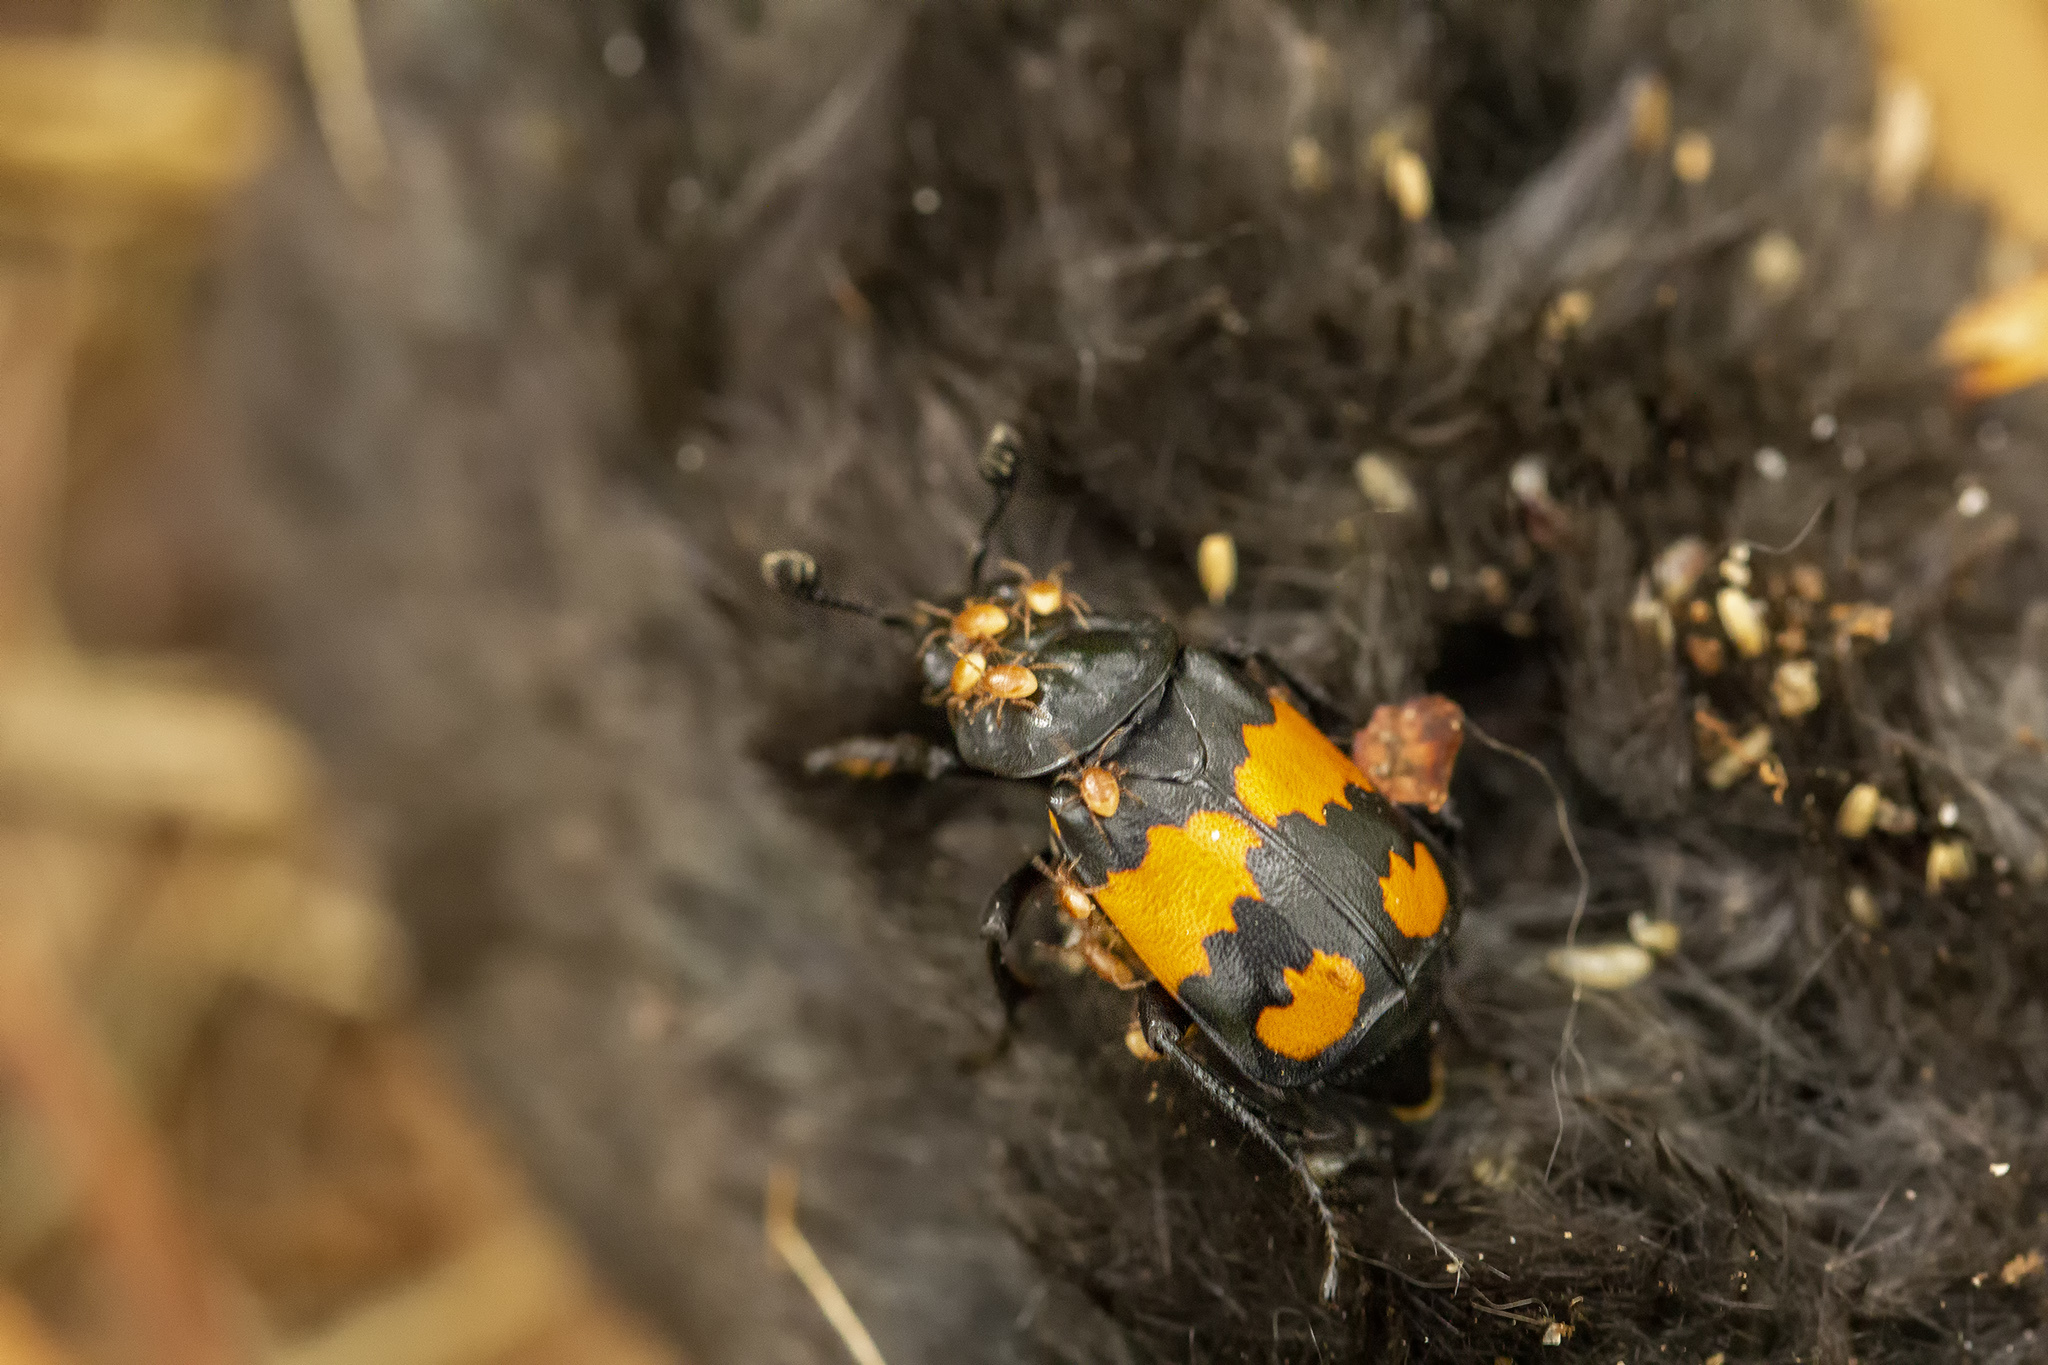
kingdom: Animalia
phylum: Arthropoda
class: Insecta
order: Coleoptera
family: Staphylinidae
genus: Nicrophorus
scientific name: Nicrophorus vespilloides
